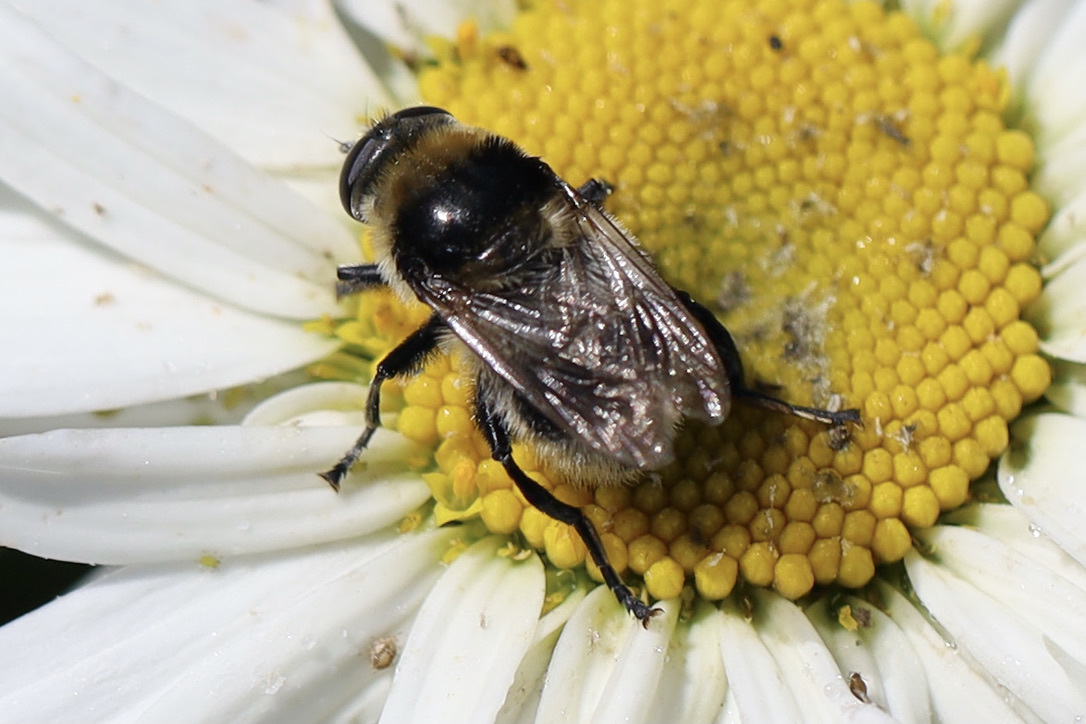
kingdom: Animalia
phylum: Arthropoda
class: Insecta
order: Diptera
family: Syrphidae
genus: Merodon
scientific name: Merodon equestris
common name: Greater bulb-fly
